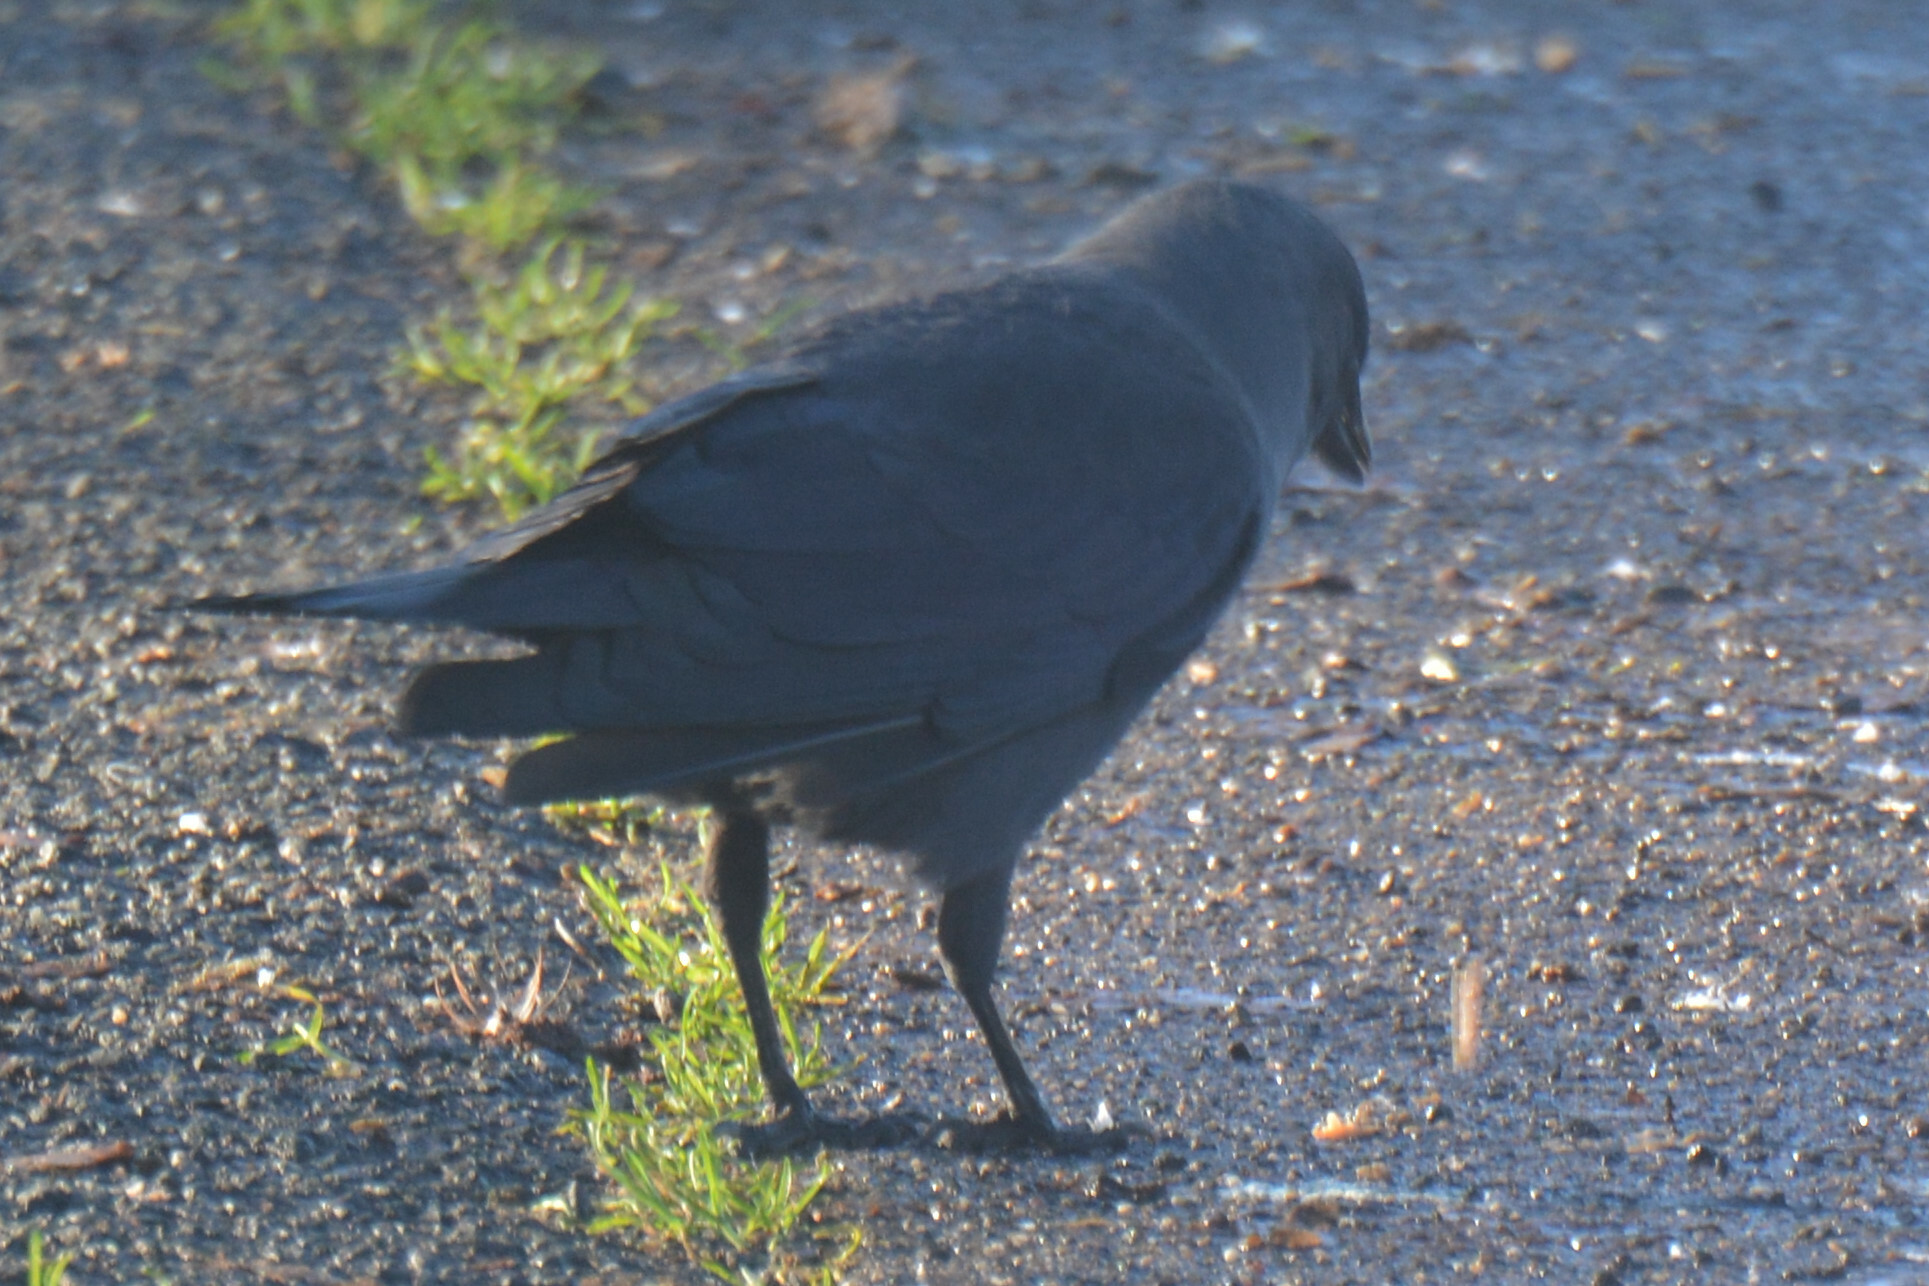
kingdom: Animalia
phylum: Chordata
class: Aves
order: Passeriformes
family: Corvidae
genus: Coloeus
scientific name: Coloeus monedula
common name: Western jackdaw
